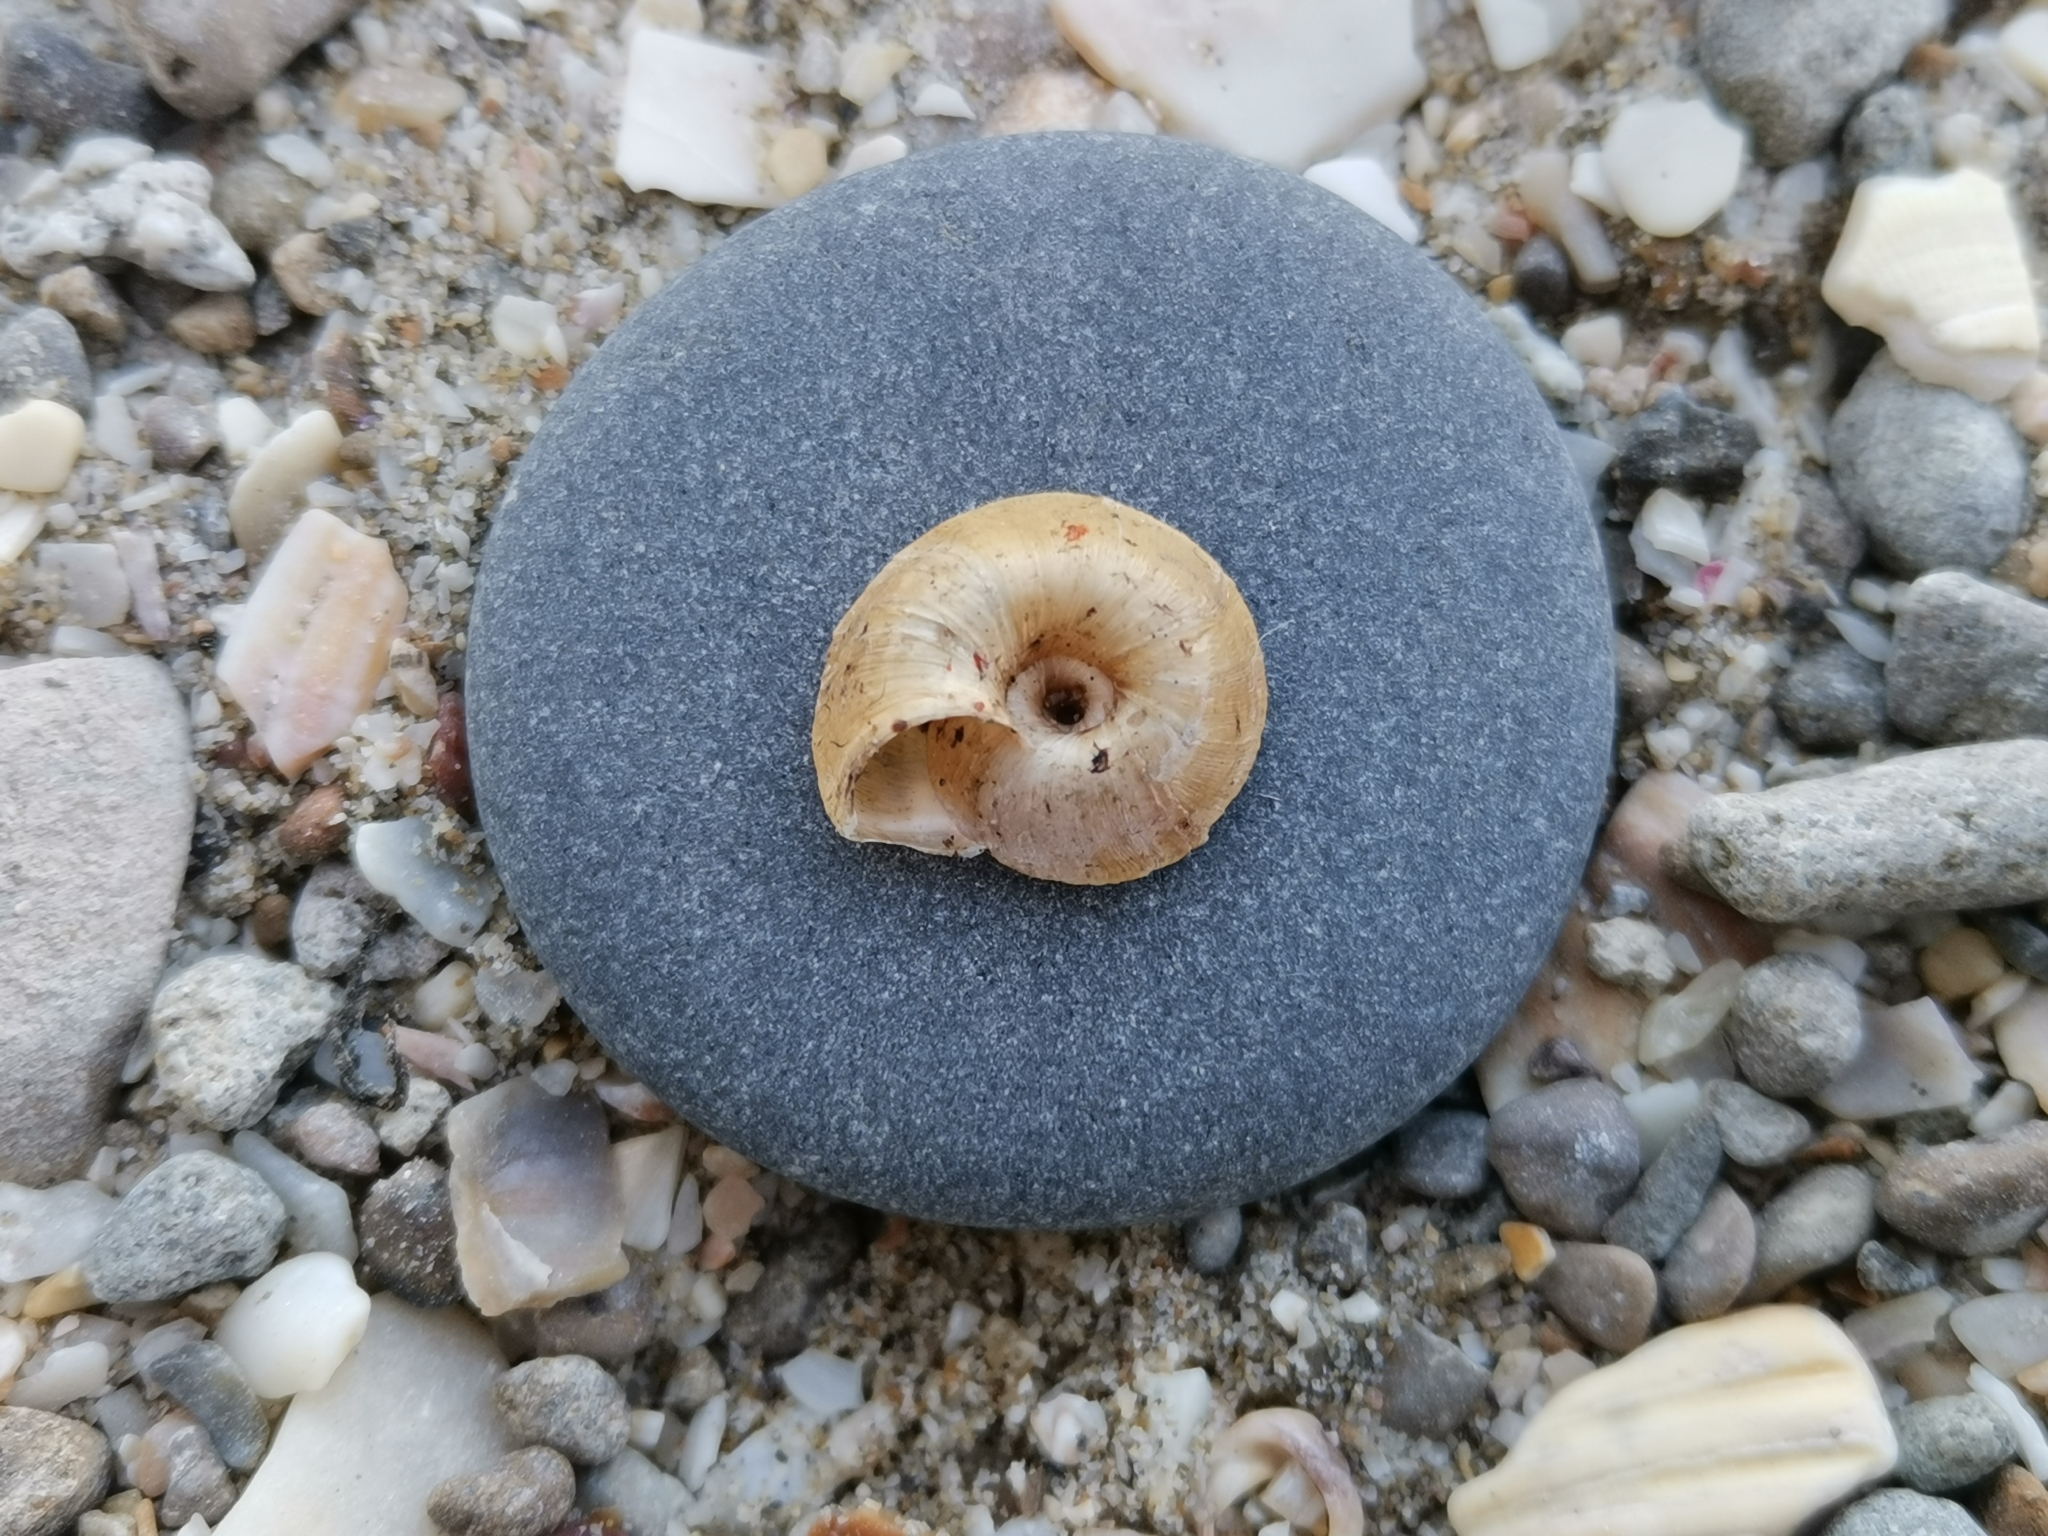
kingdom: Animalia
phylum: Mollusca
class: Gastropoda
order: Stylommatophora
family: Geomitridae
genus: Xerosecta
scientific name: Xerosecta explanata
